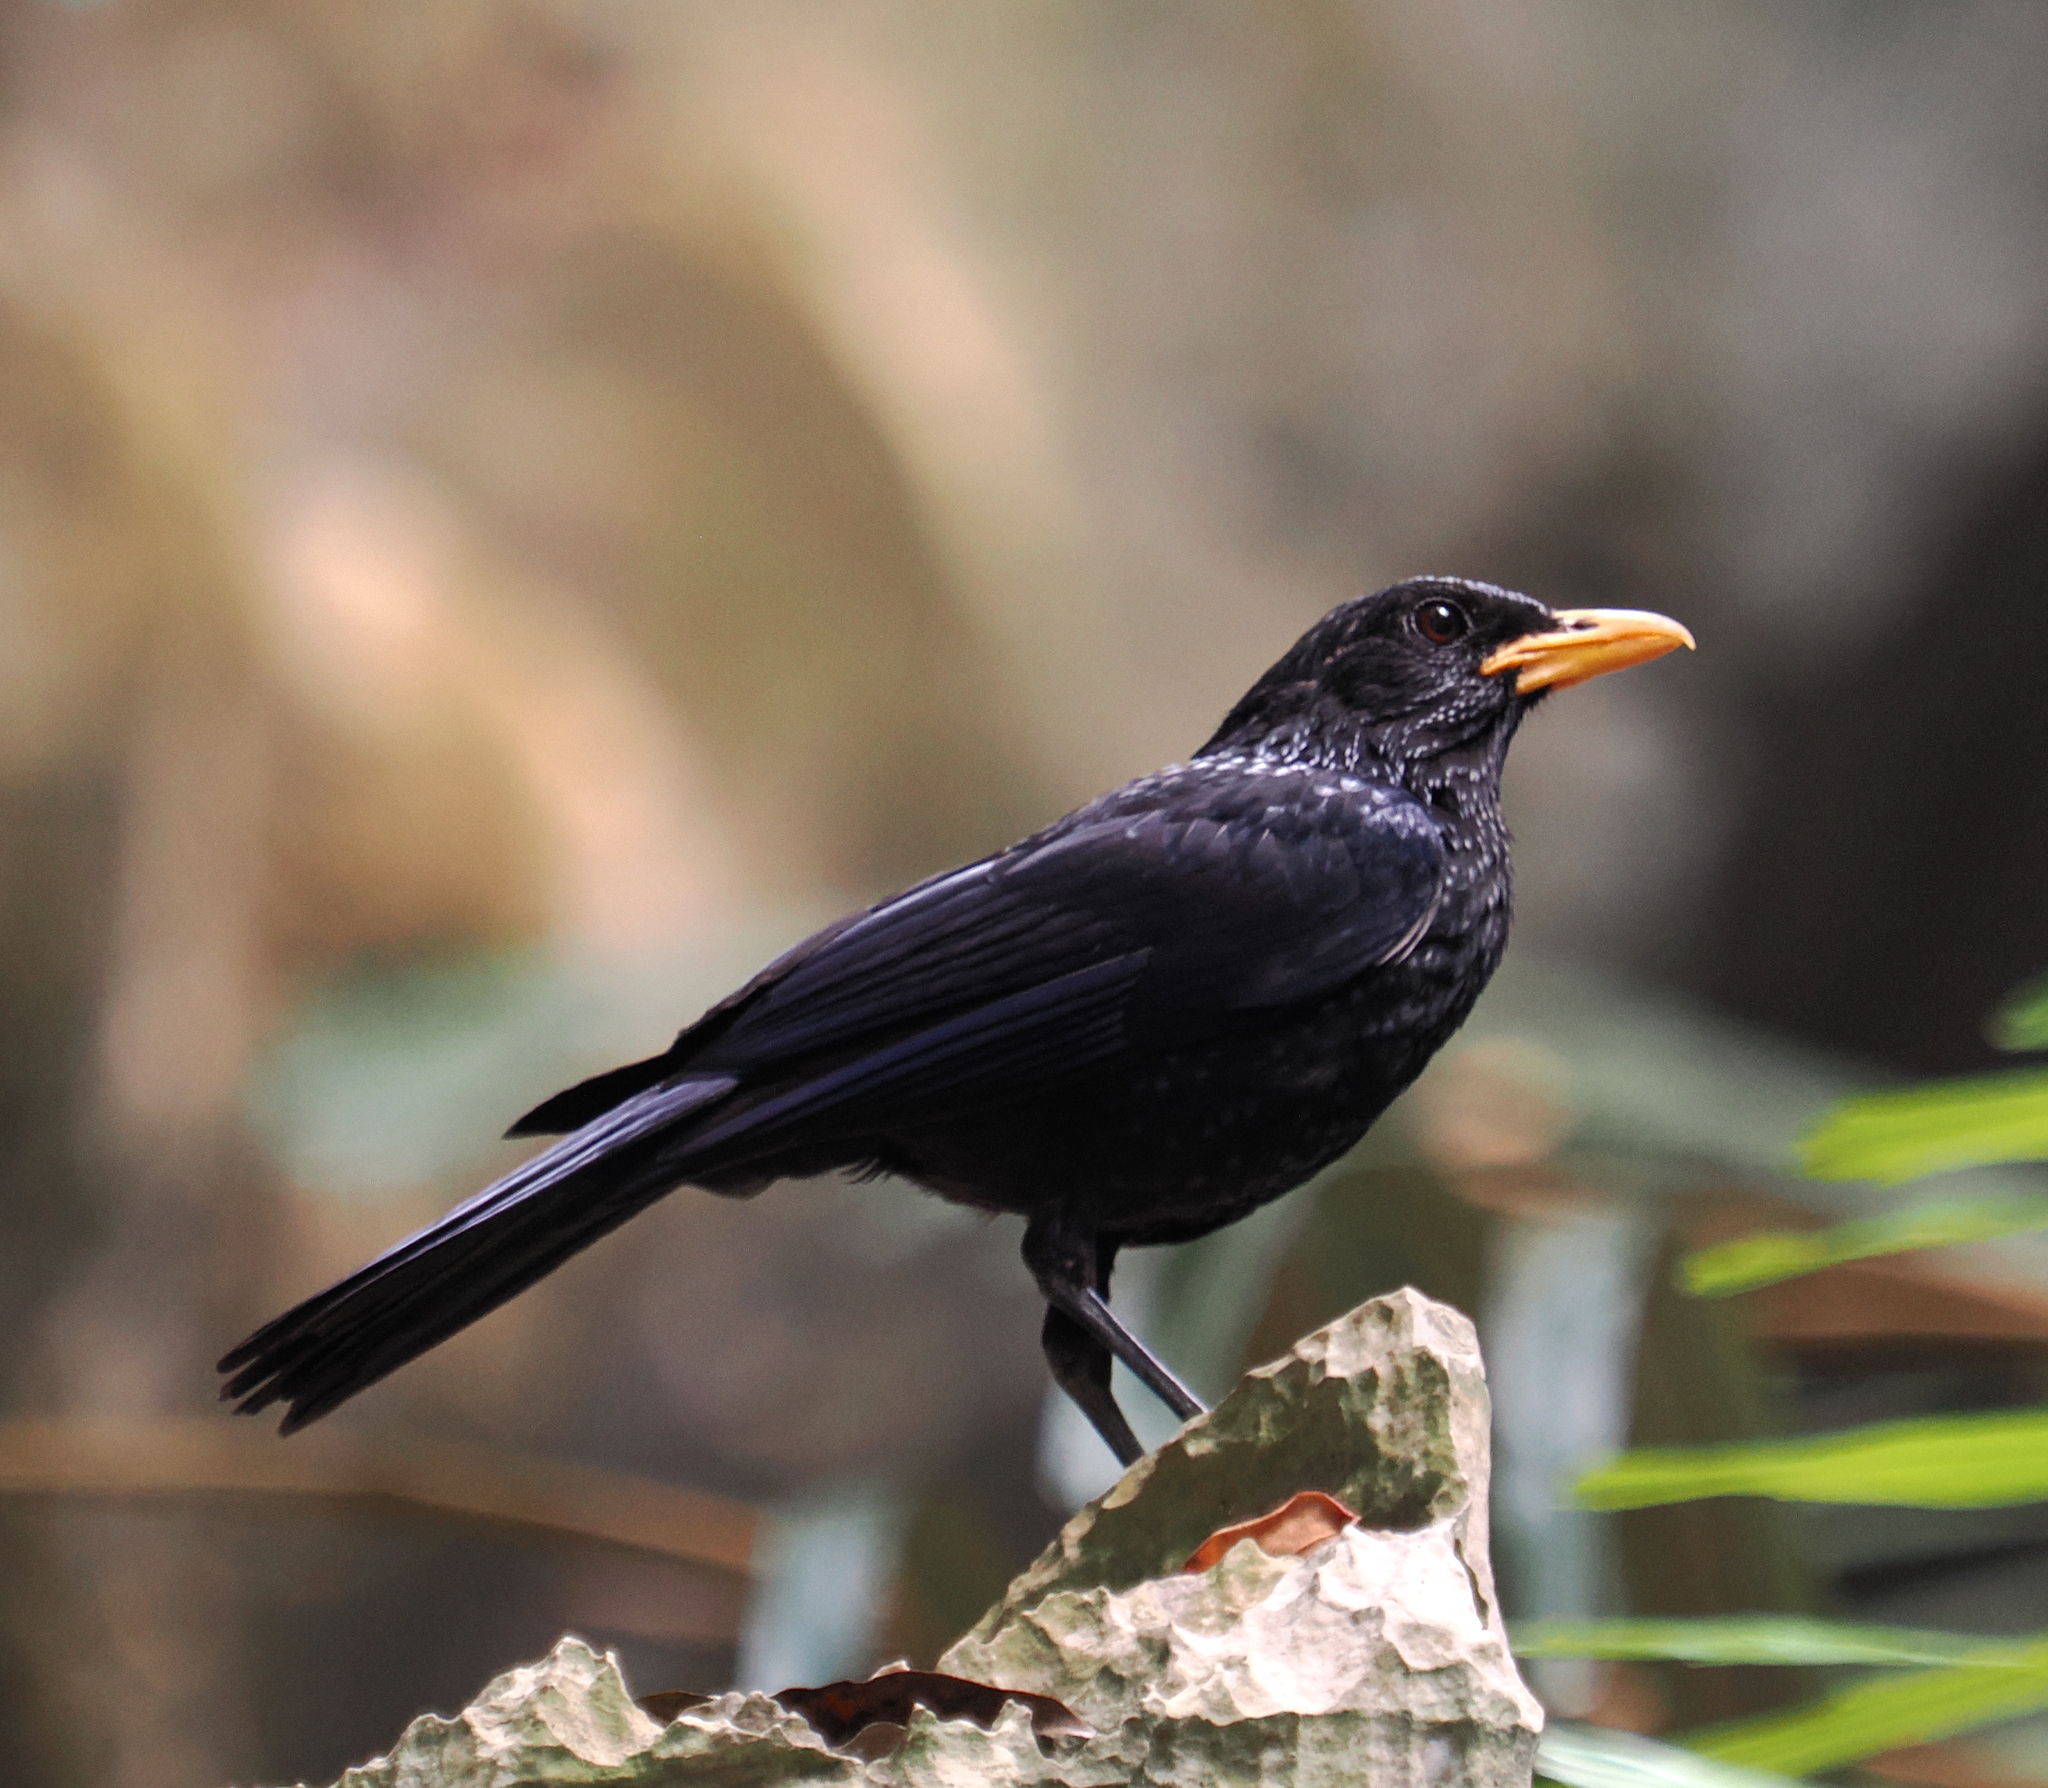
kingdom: Animalia
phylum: Chordata
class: Aves
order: Passeriformes
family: Muscicapidae
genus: Myophonus
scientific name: Myophonus caeruleus
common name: Blue whistling-thrush
